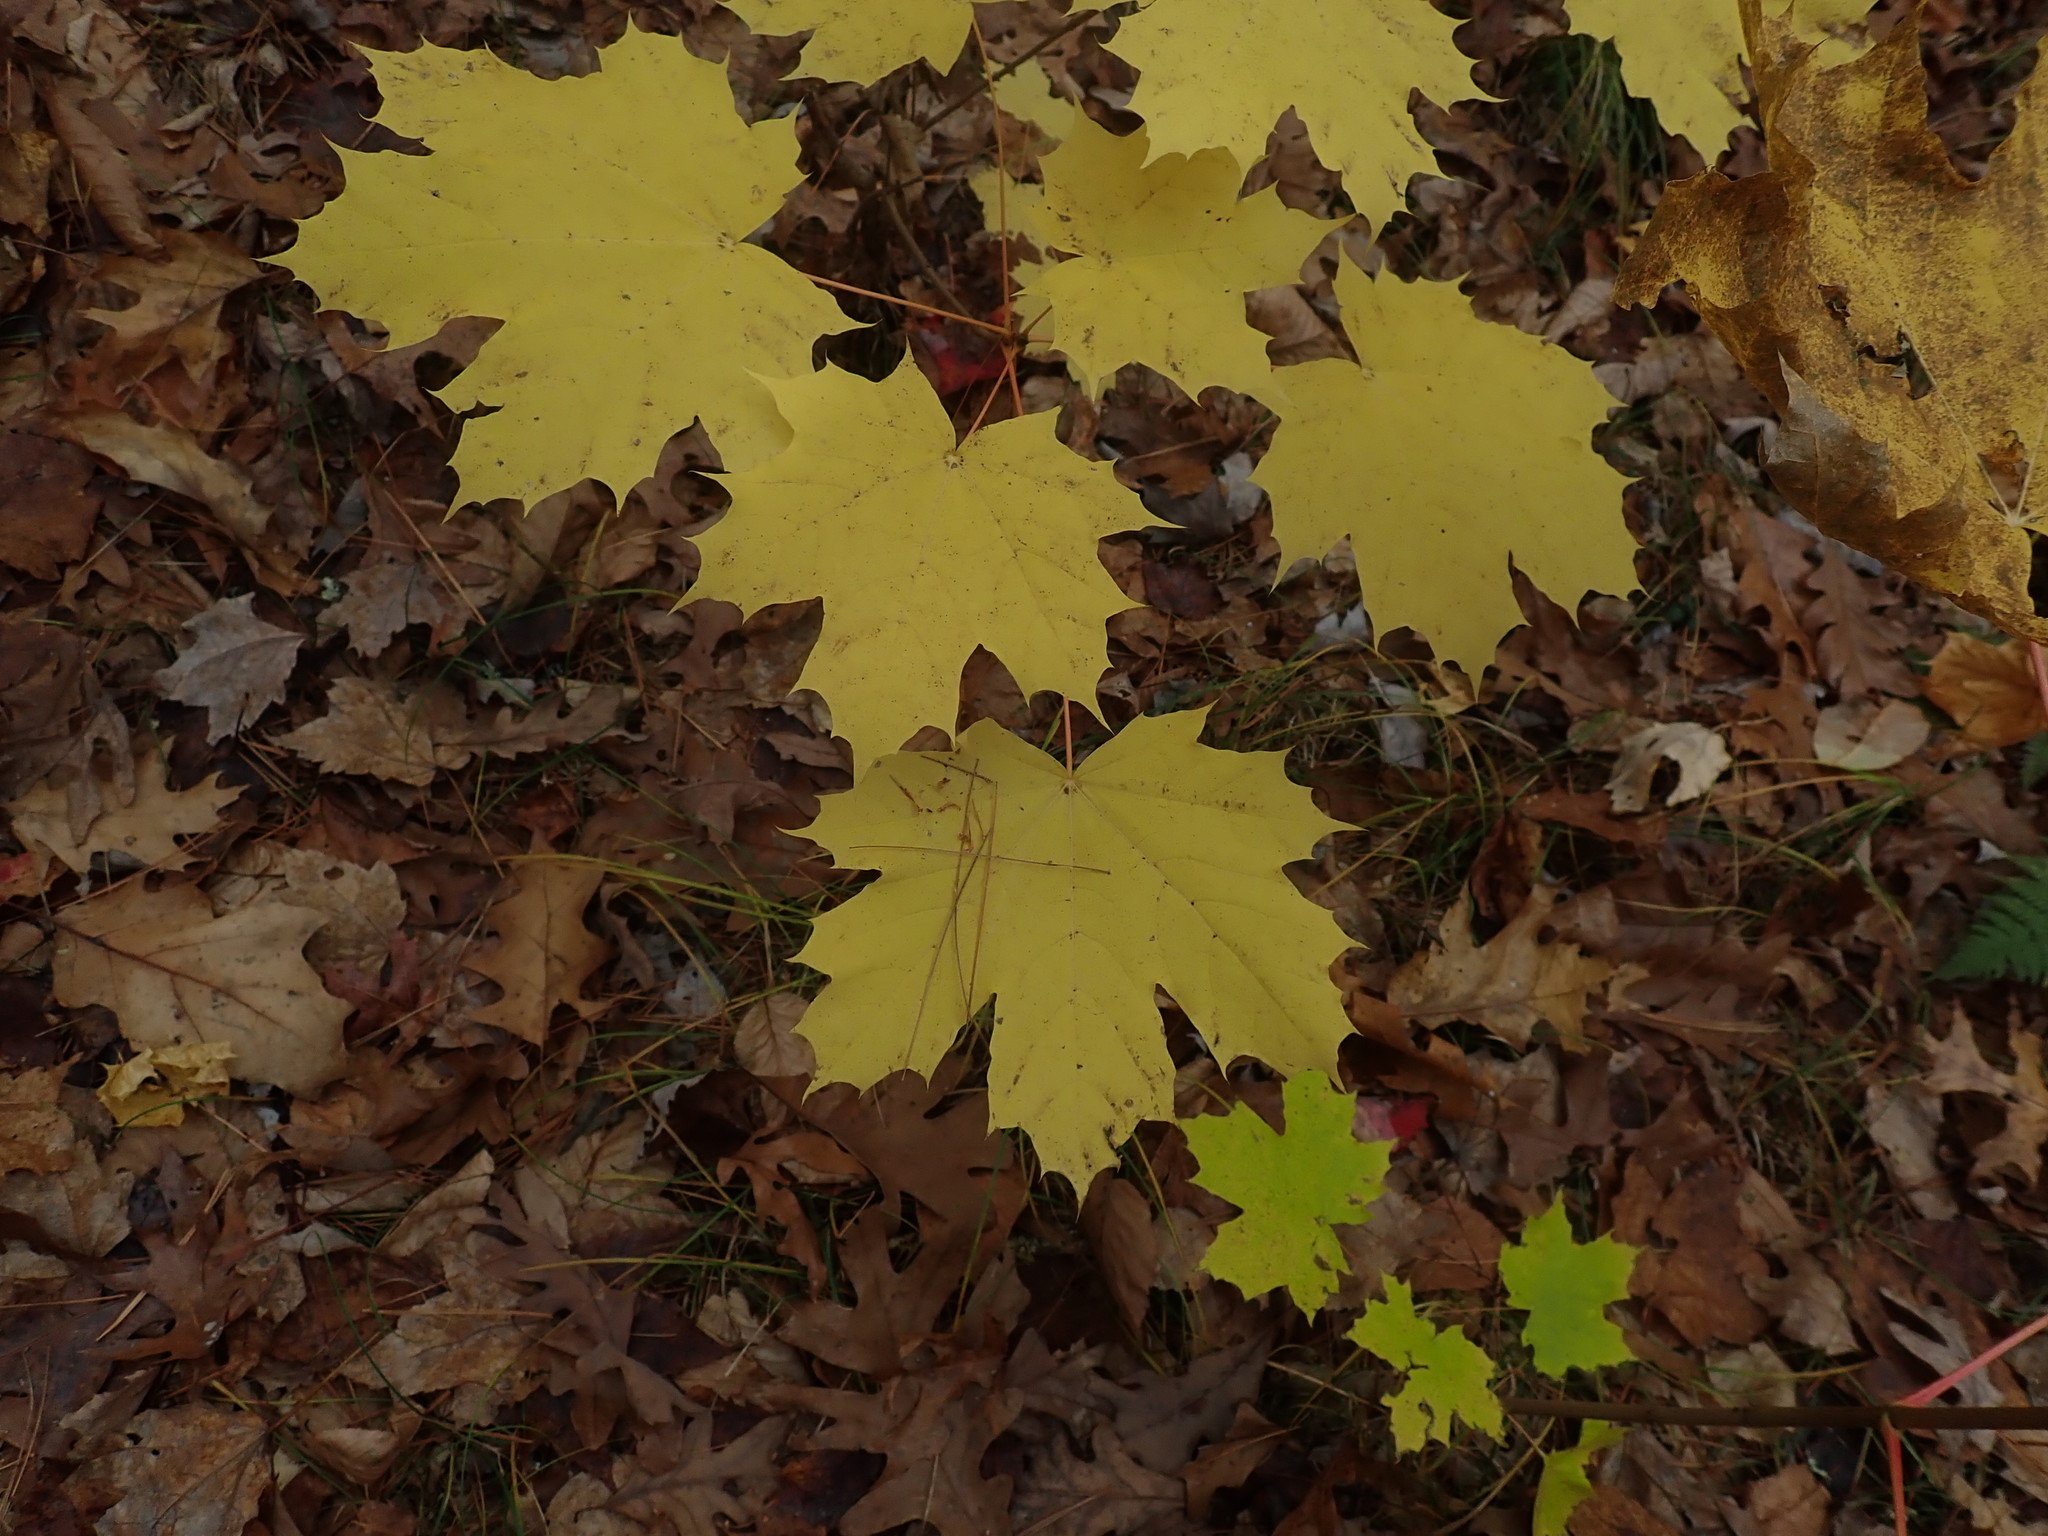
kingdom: Plantae
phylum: Tracheophyta
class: Magnoliopsida
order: Sapindales
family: Sapindaceae
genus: Acer
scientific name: Acer platanoides
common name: Norway maple
